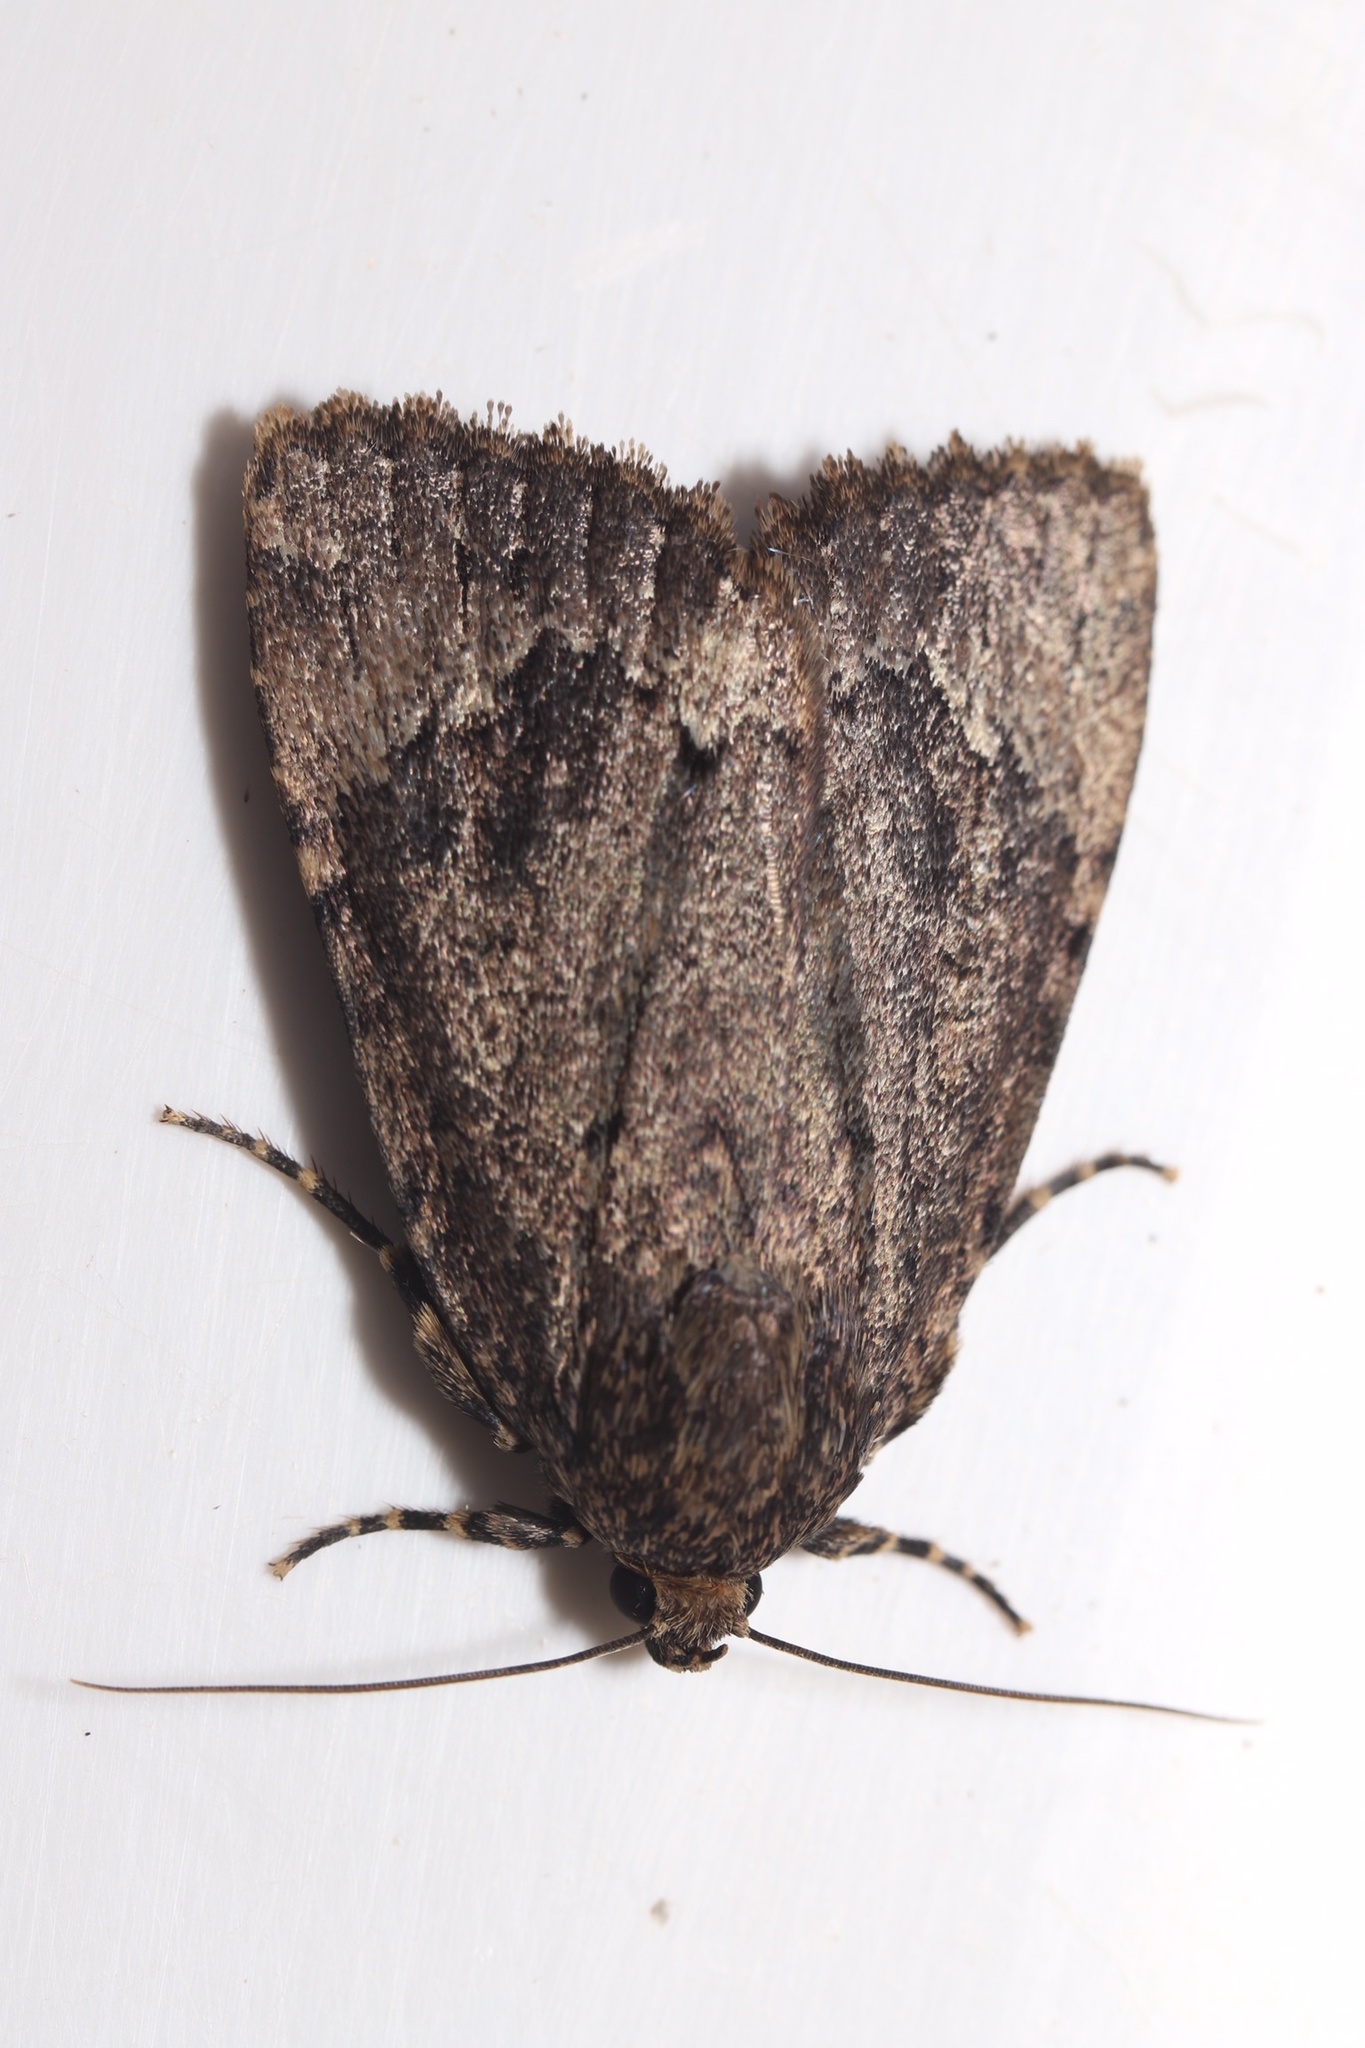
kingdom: Animalia
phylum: Arthropoda
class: Insecta
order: Lepidoptera
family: Noctuidae
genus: Amphipyra
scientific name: Amphipyra pyramidoides
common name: American copper underwing
